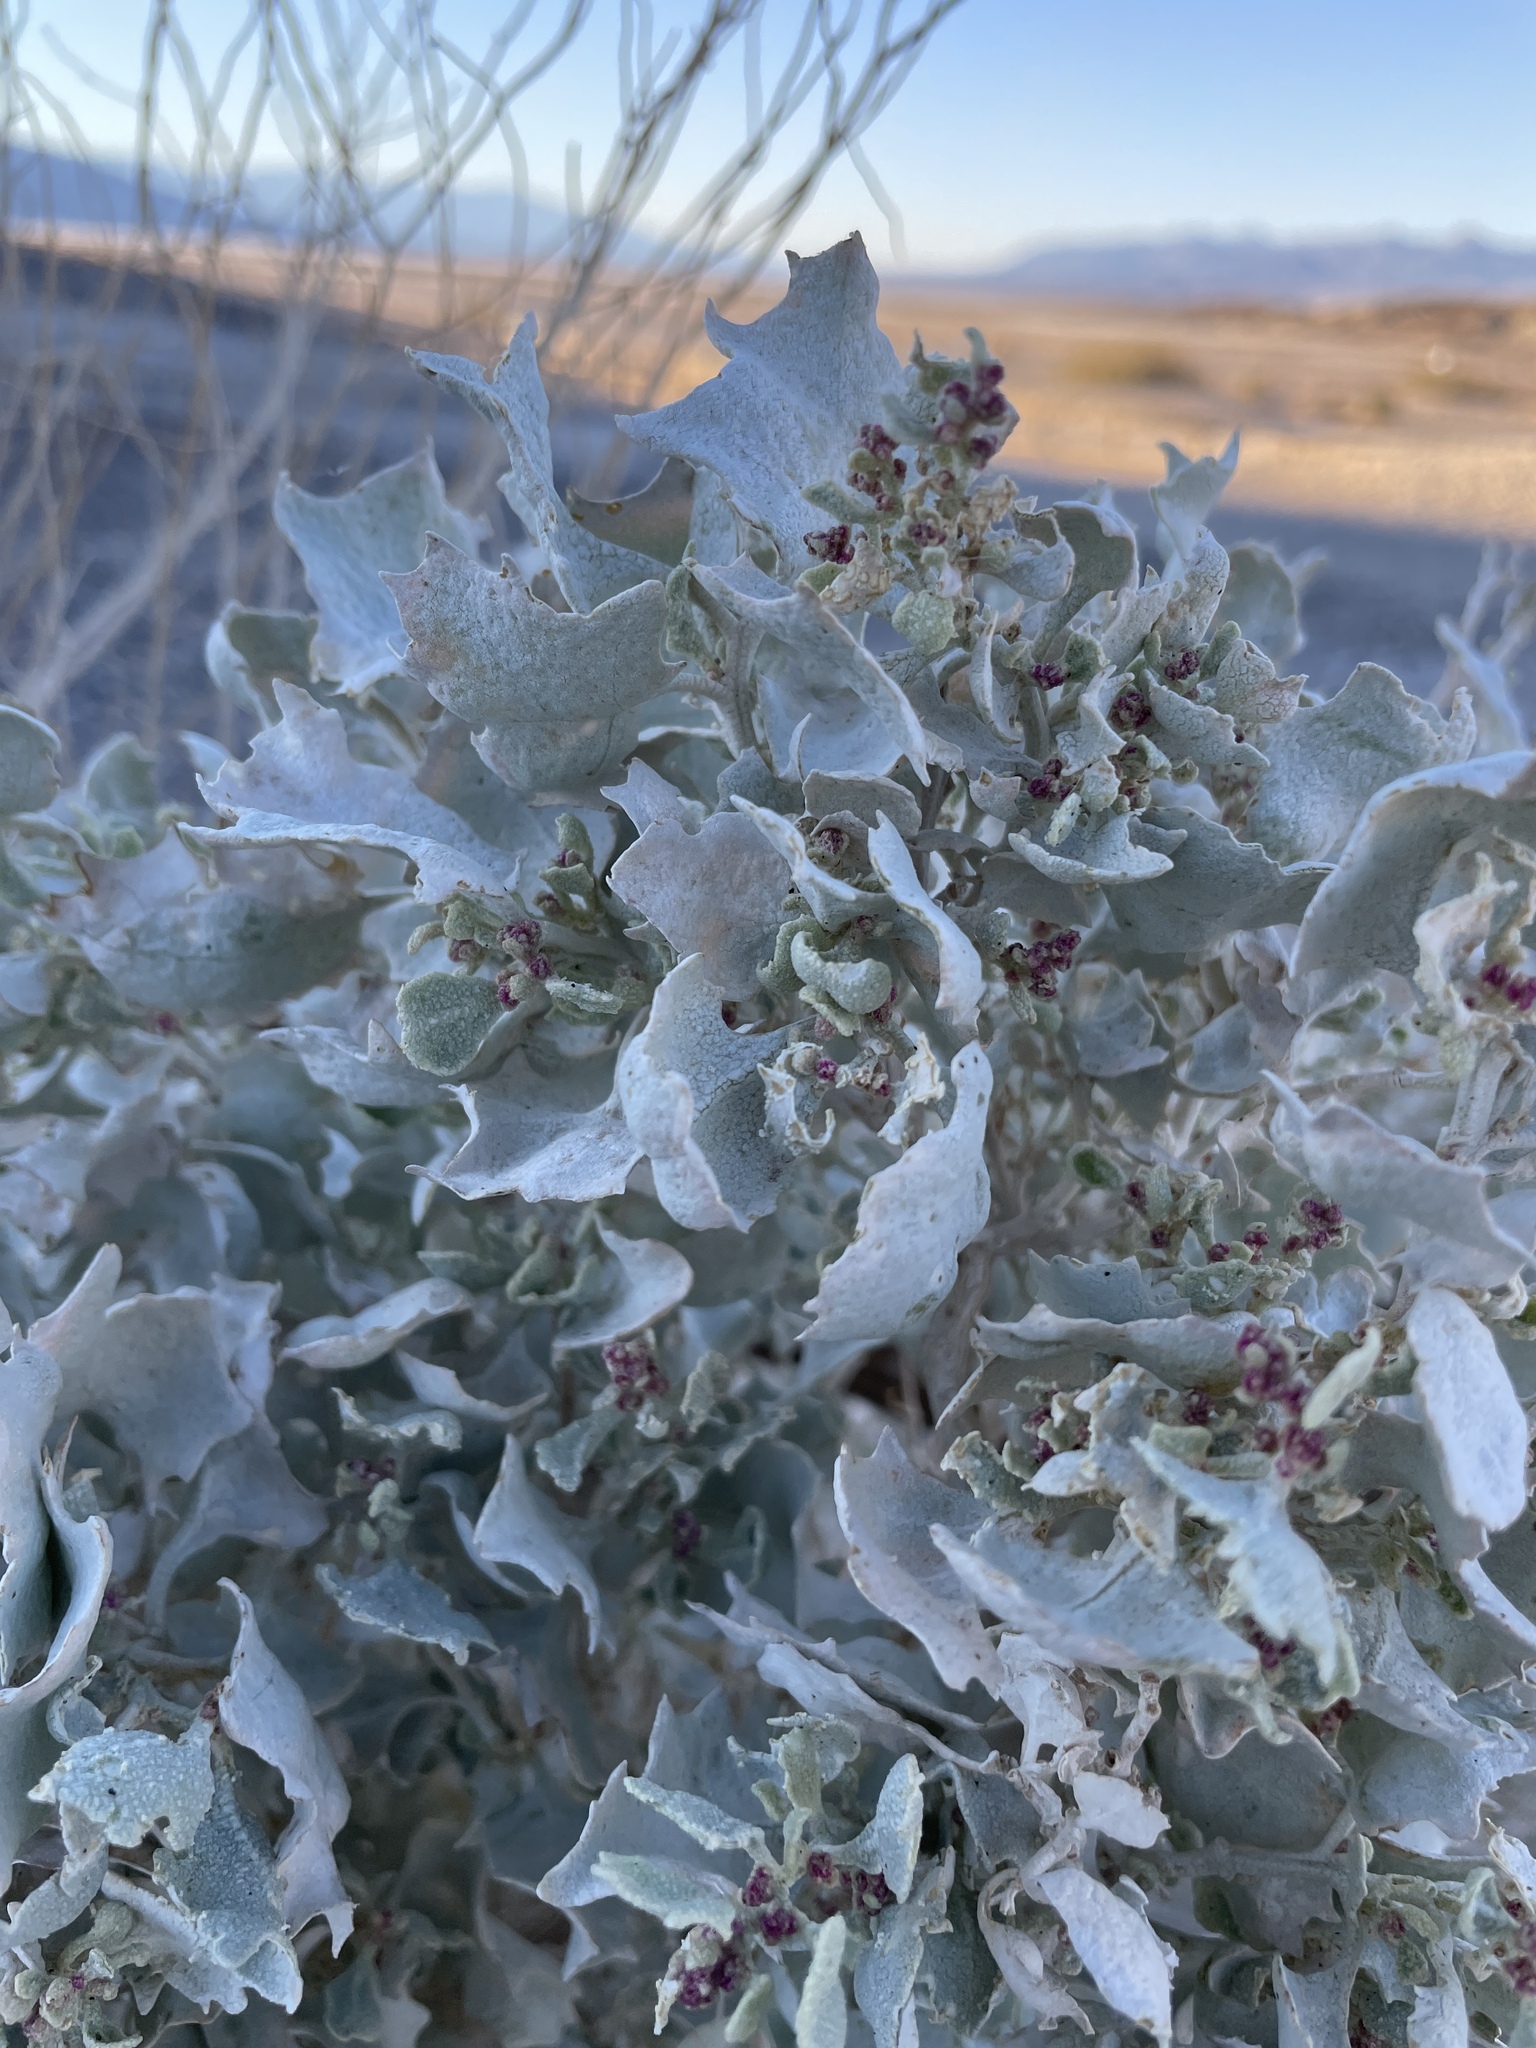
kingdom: Plantae
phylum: Tracheophyta
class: Magnoliopsida
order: Caryophyllales
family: Amaranthaceae
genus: Atriplex
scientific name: Atriplex hymenelytra
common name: Desert-holly
